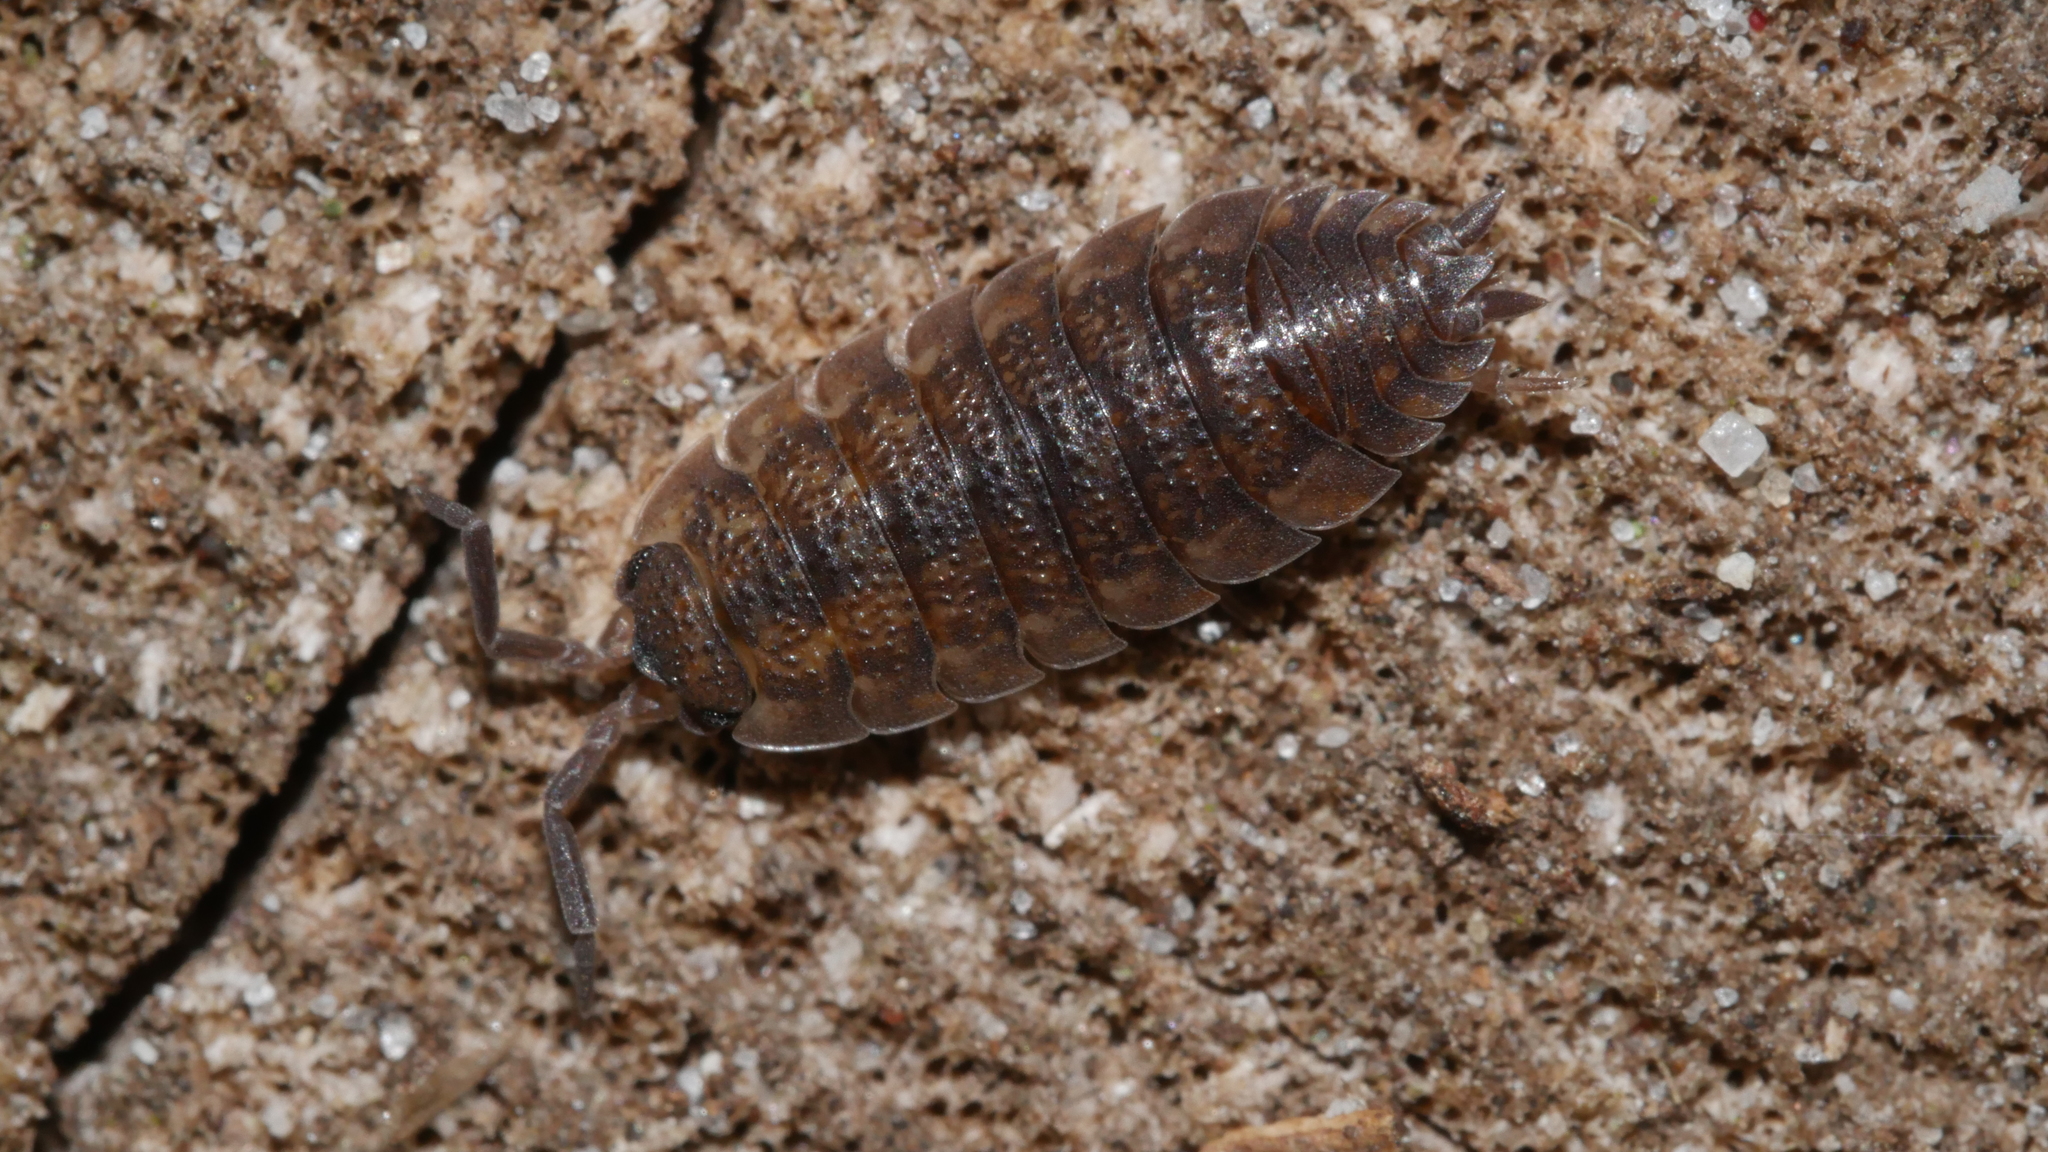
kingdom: Animalia
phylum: Arthropoda
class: Malacostraca
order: Isopoda
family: Porcellionidae
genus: Porcellio
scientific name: Porcellio scaber
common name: Common rough woodlouse
